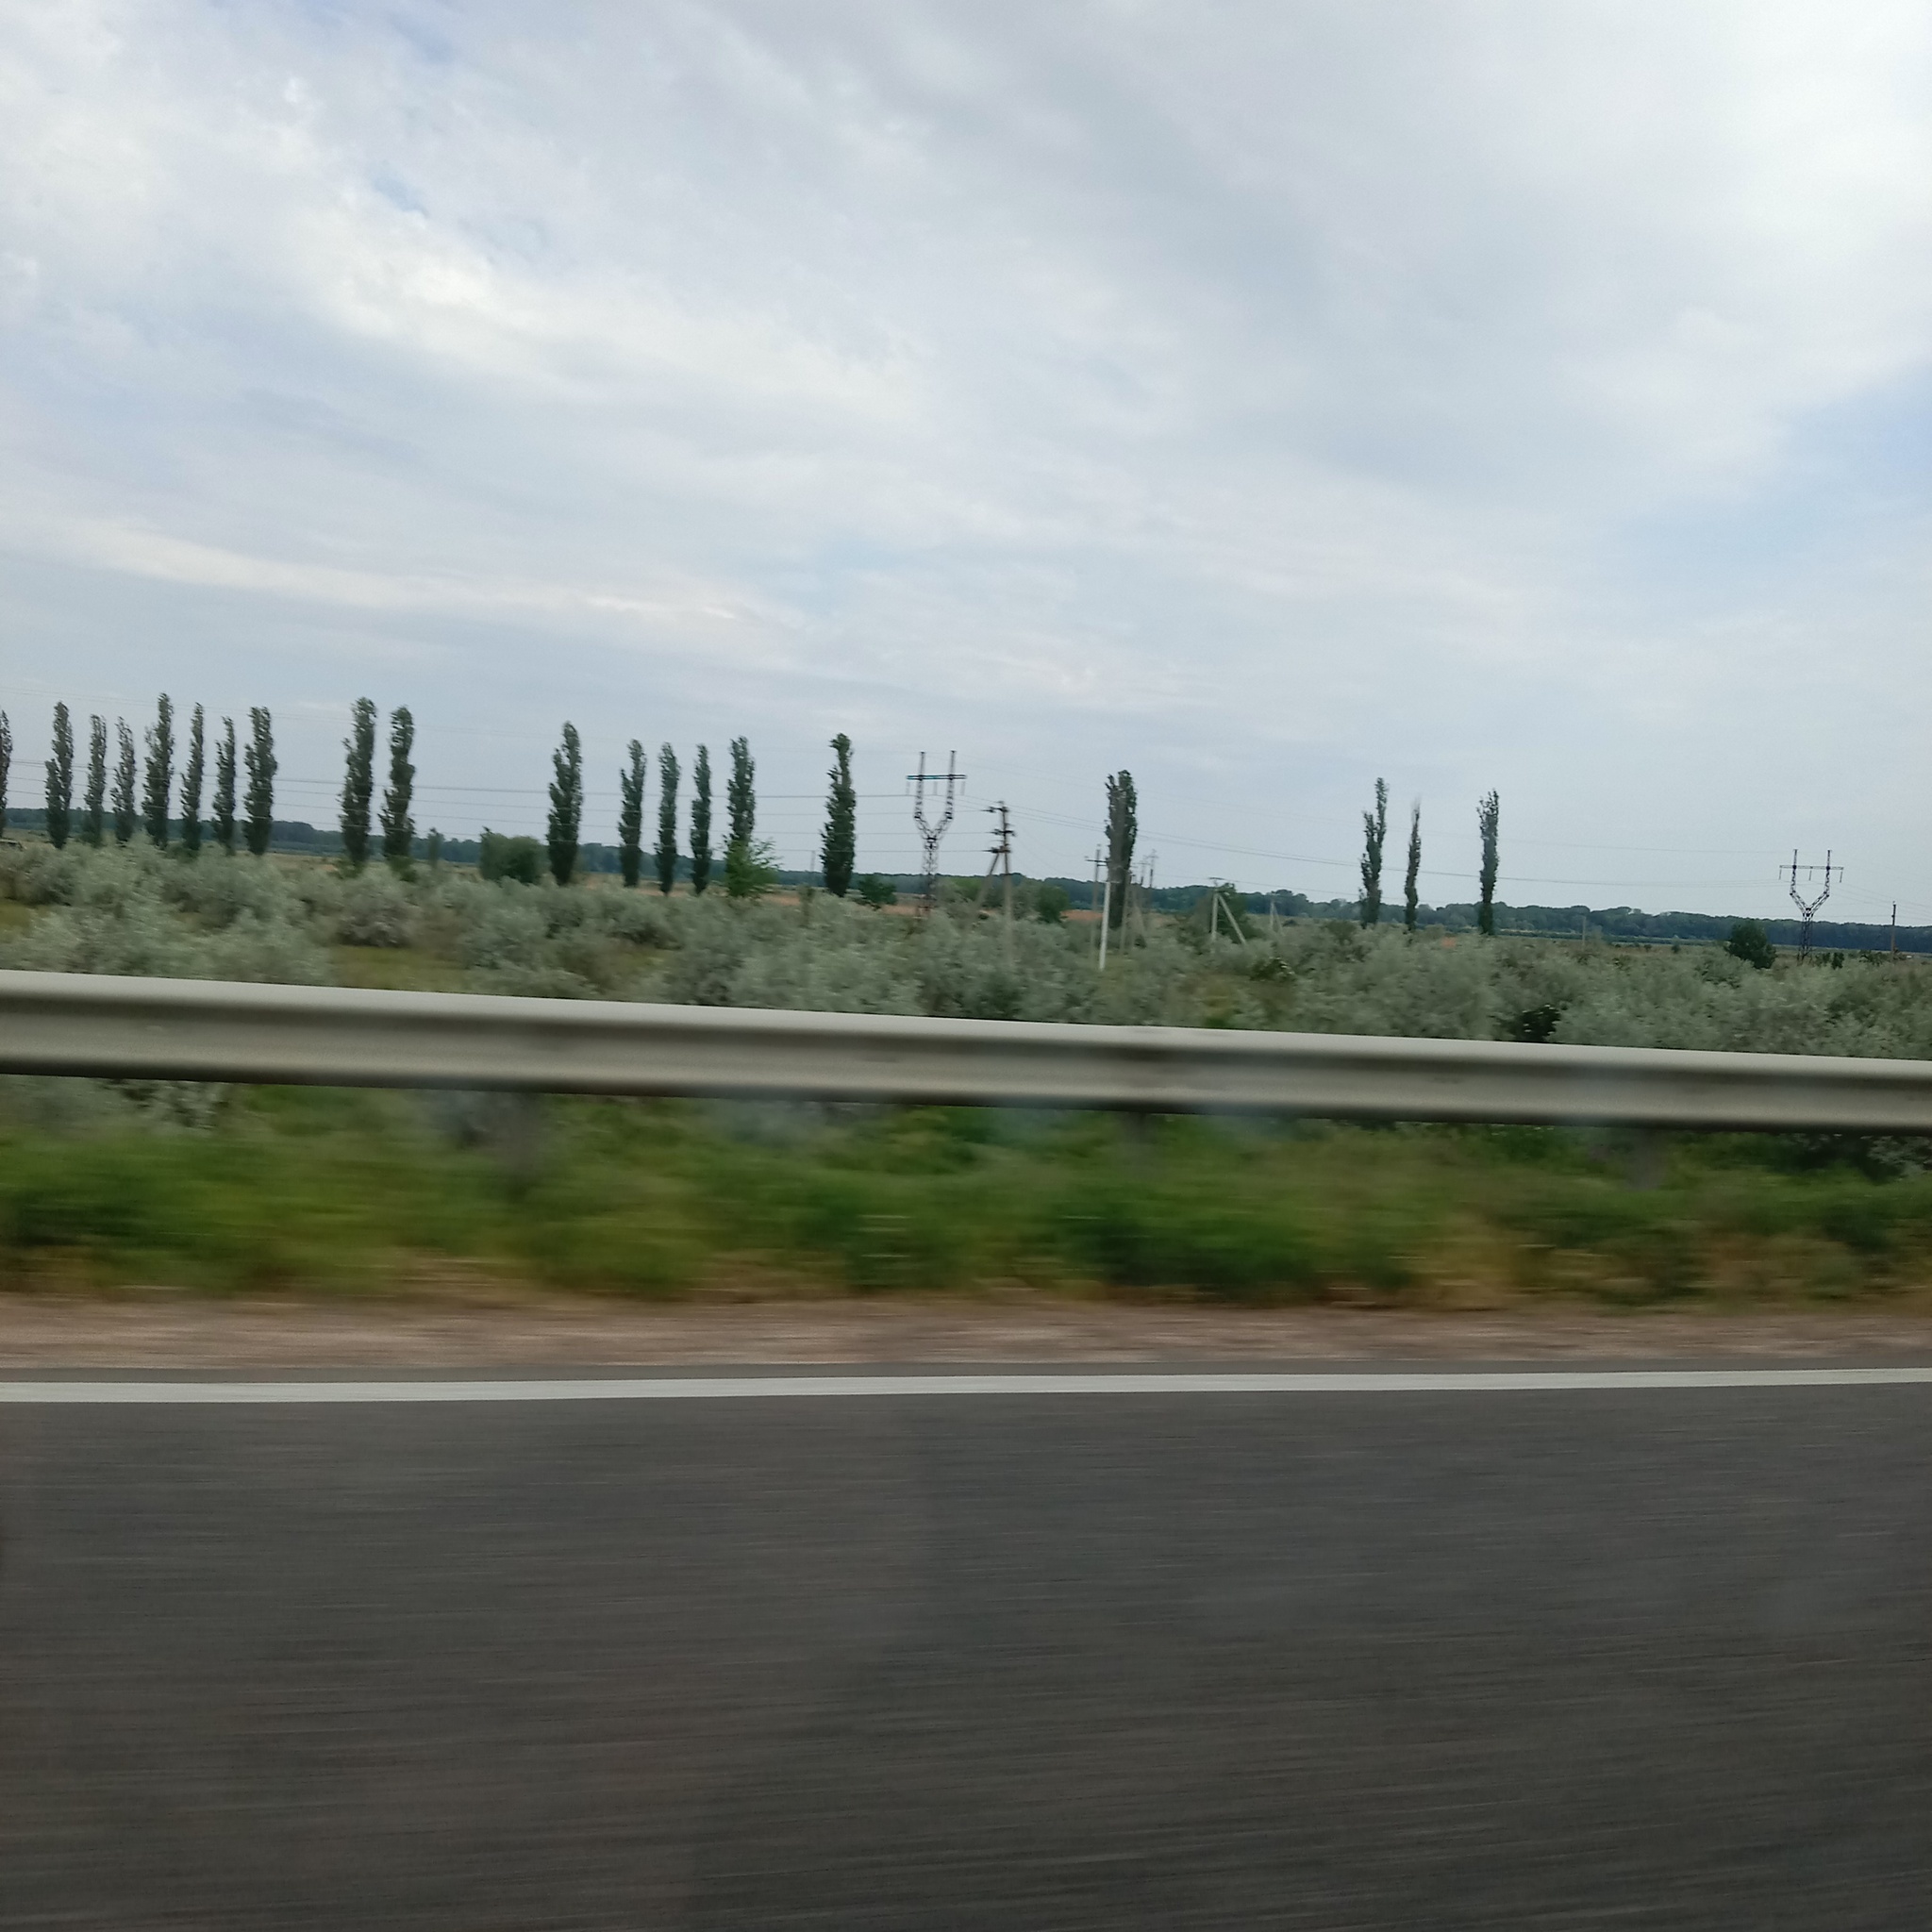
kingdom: Plantae
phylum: Tracheophyta
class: Magnoliopsida
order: Rosales
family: Elaeagnaceae
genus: Elaeagnus
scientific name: Elaeagnus angustifolia
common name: Russian olive
